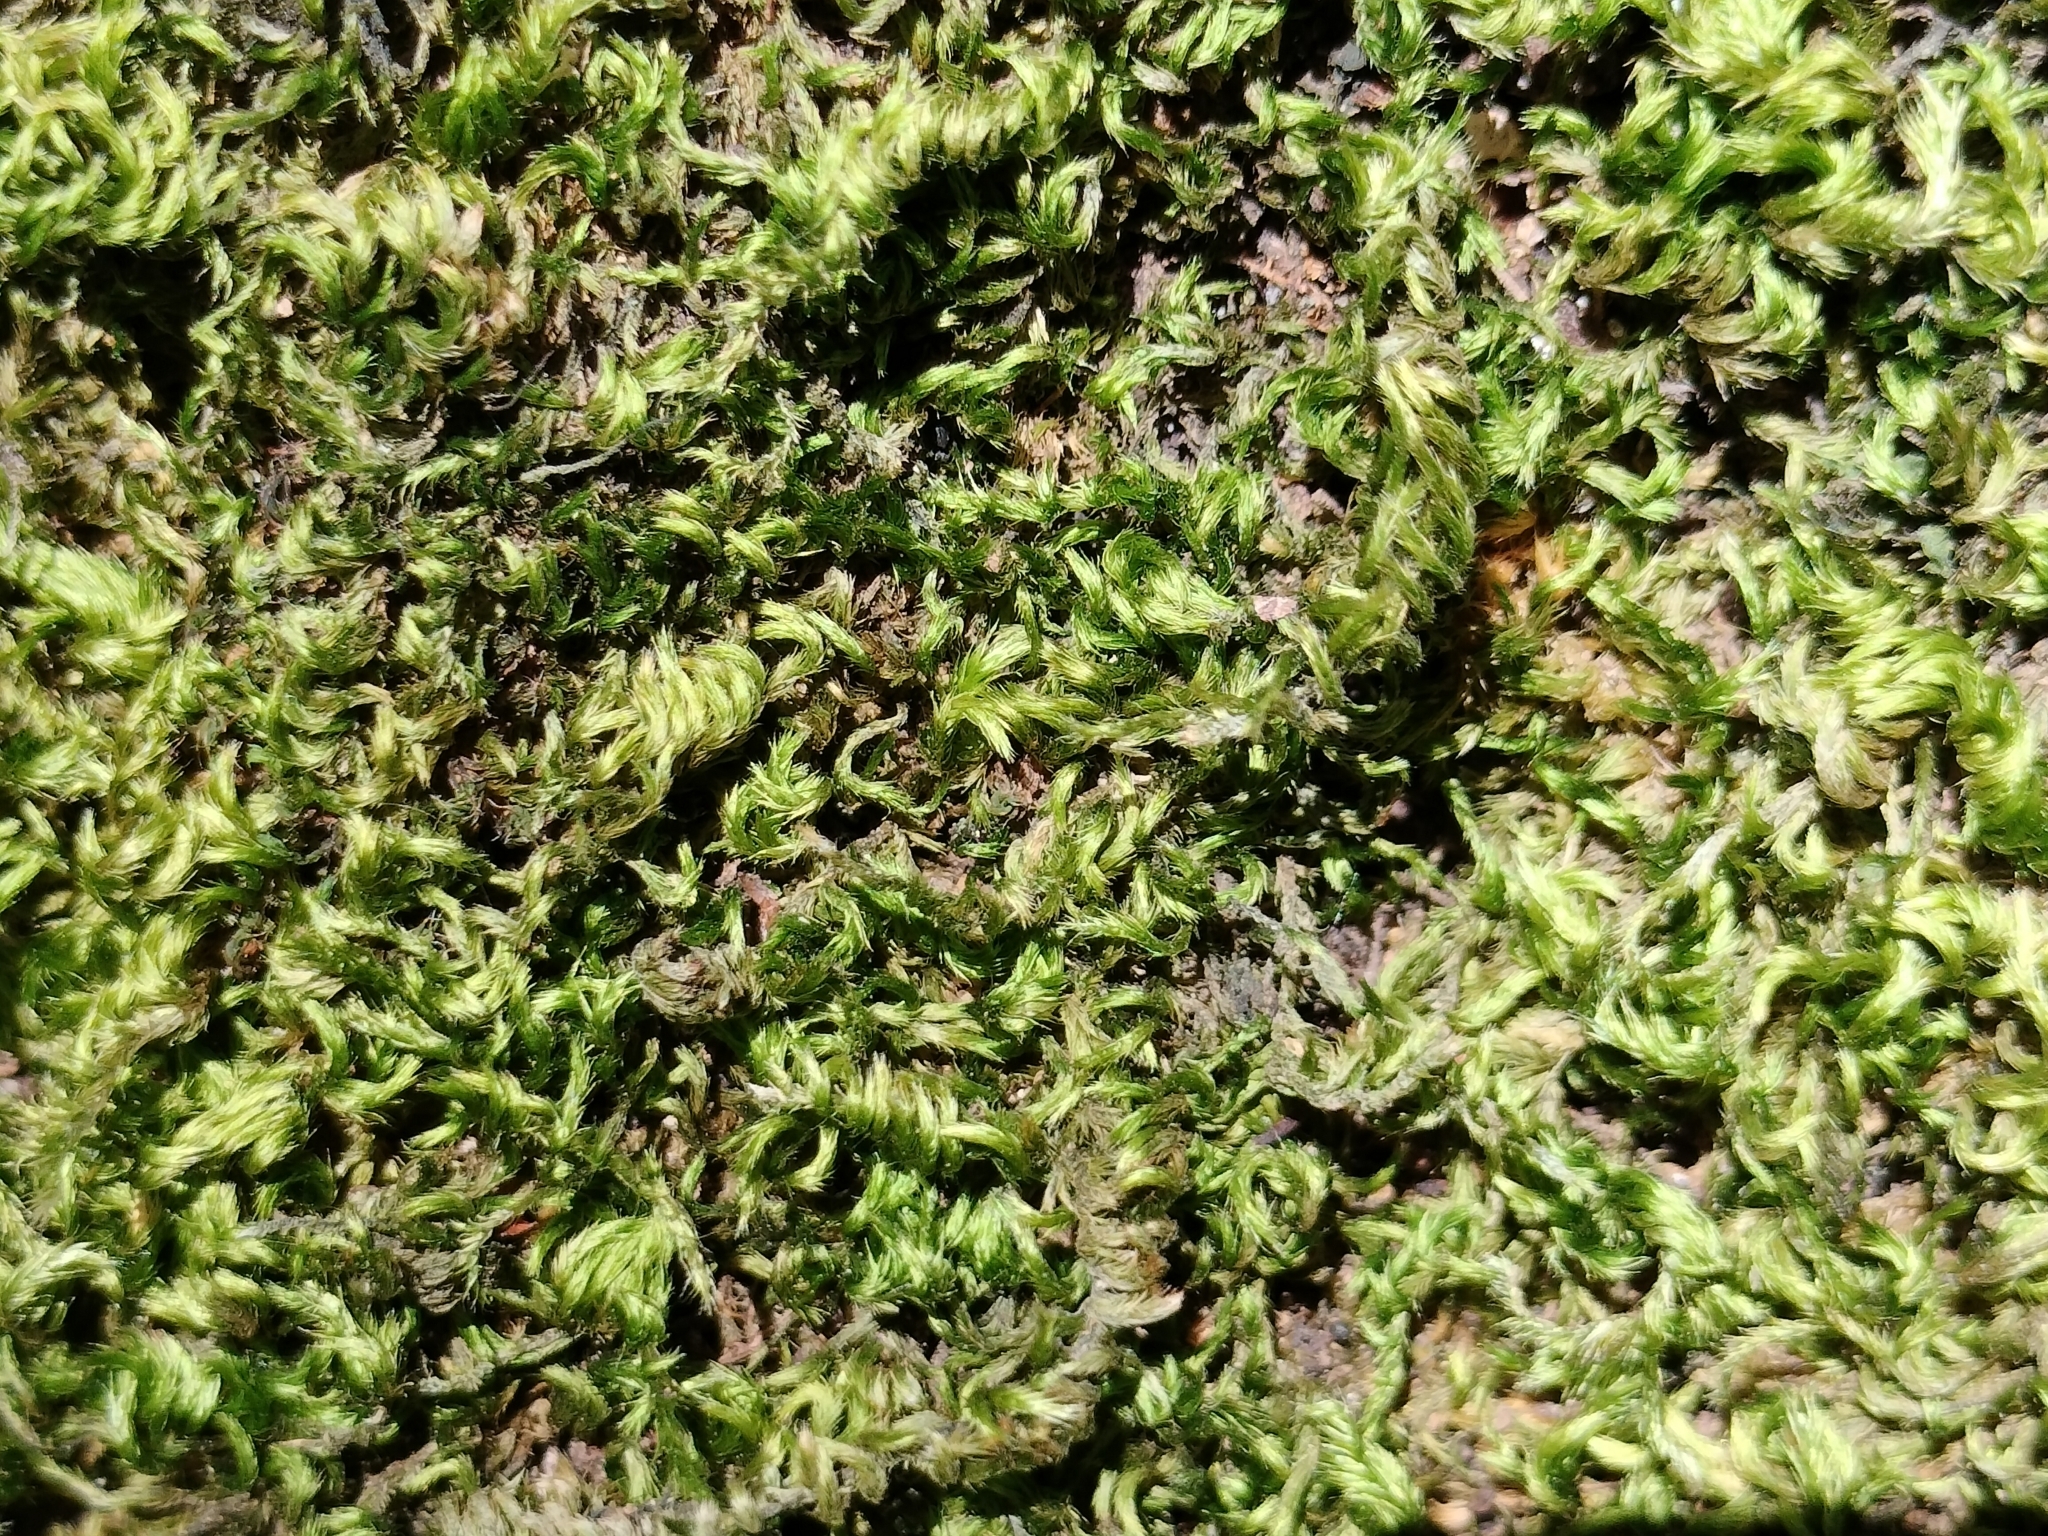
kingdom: Plantae
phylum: Bryophyta
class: Bryopsida
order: Hypnales
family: Brachytheciaceae
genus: Homalothecium
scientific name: Homalothecium sericeum
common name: Silky wall feather-moss
